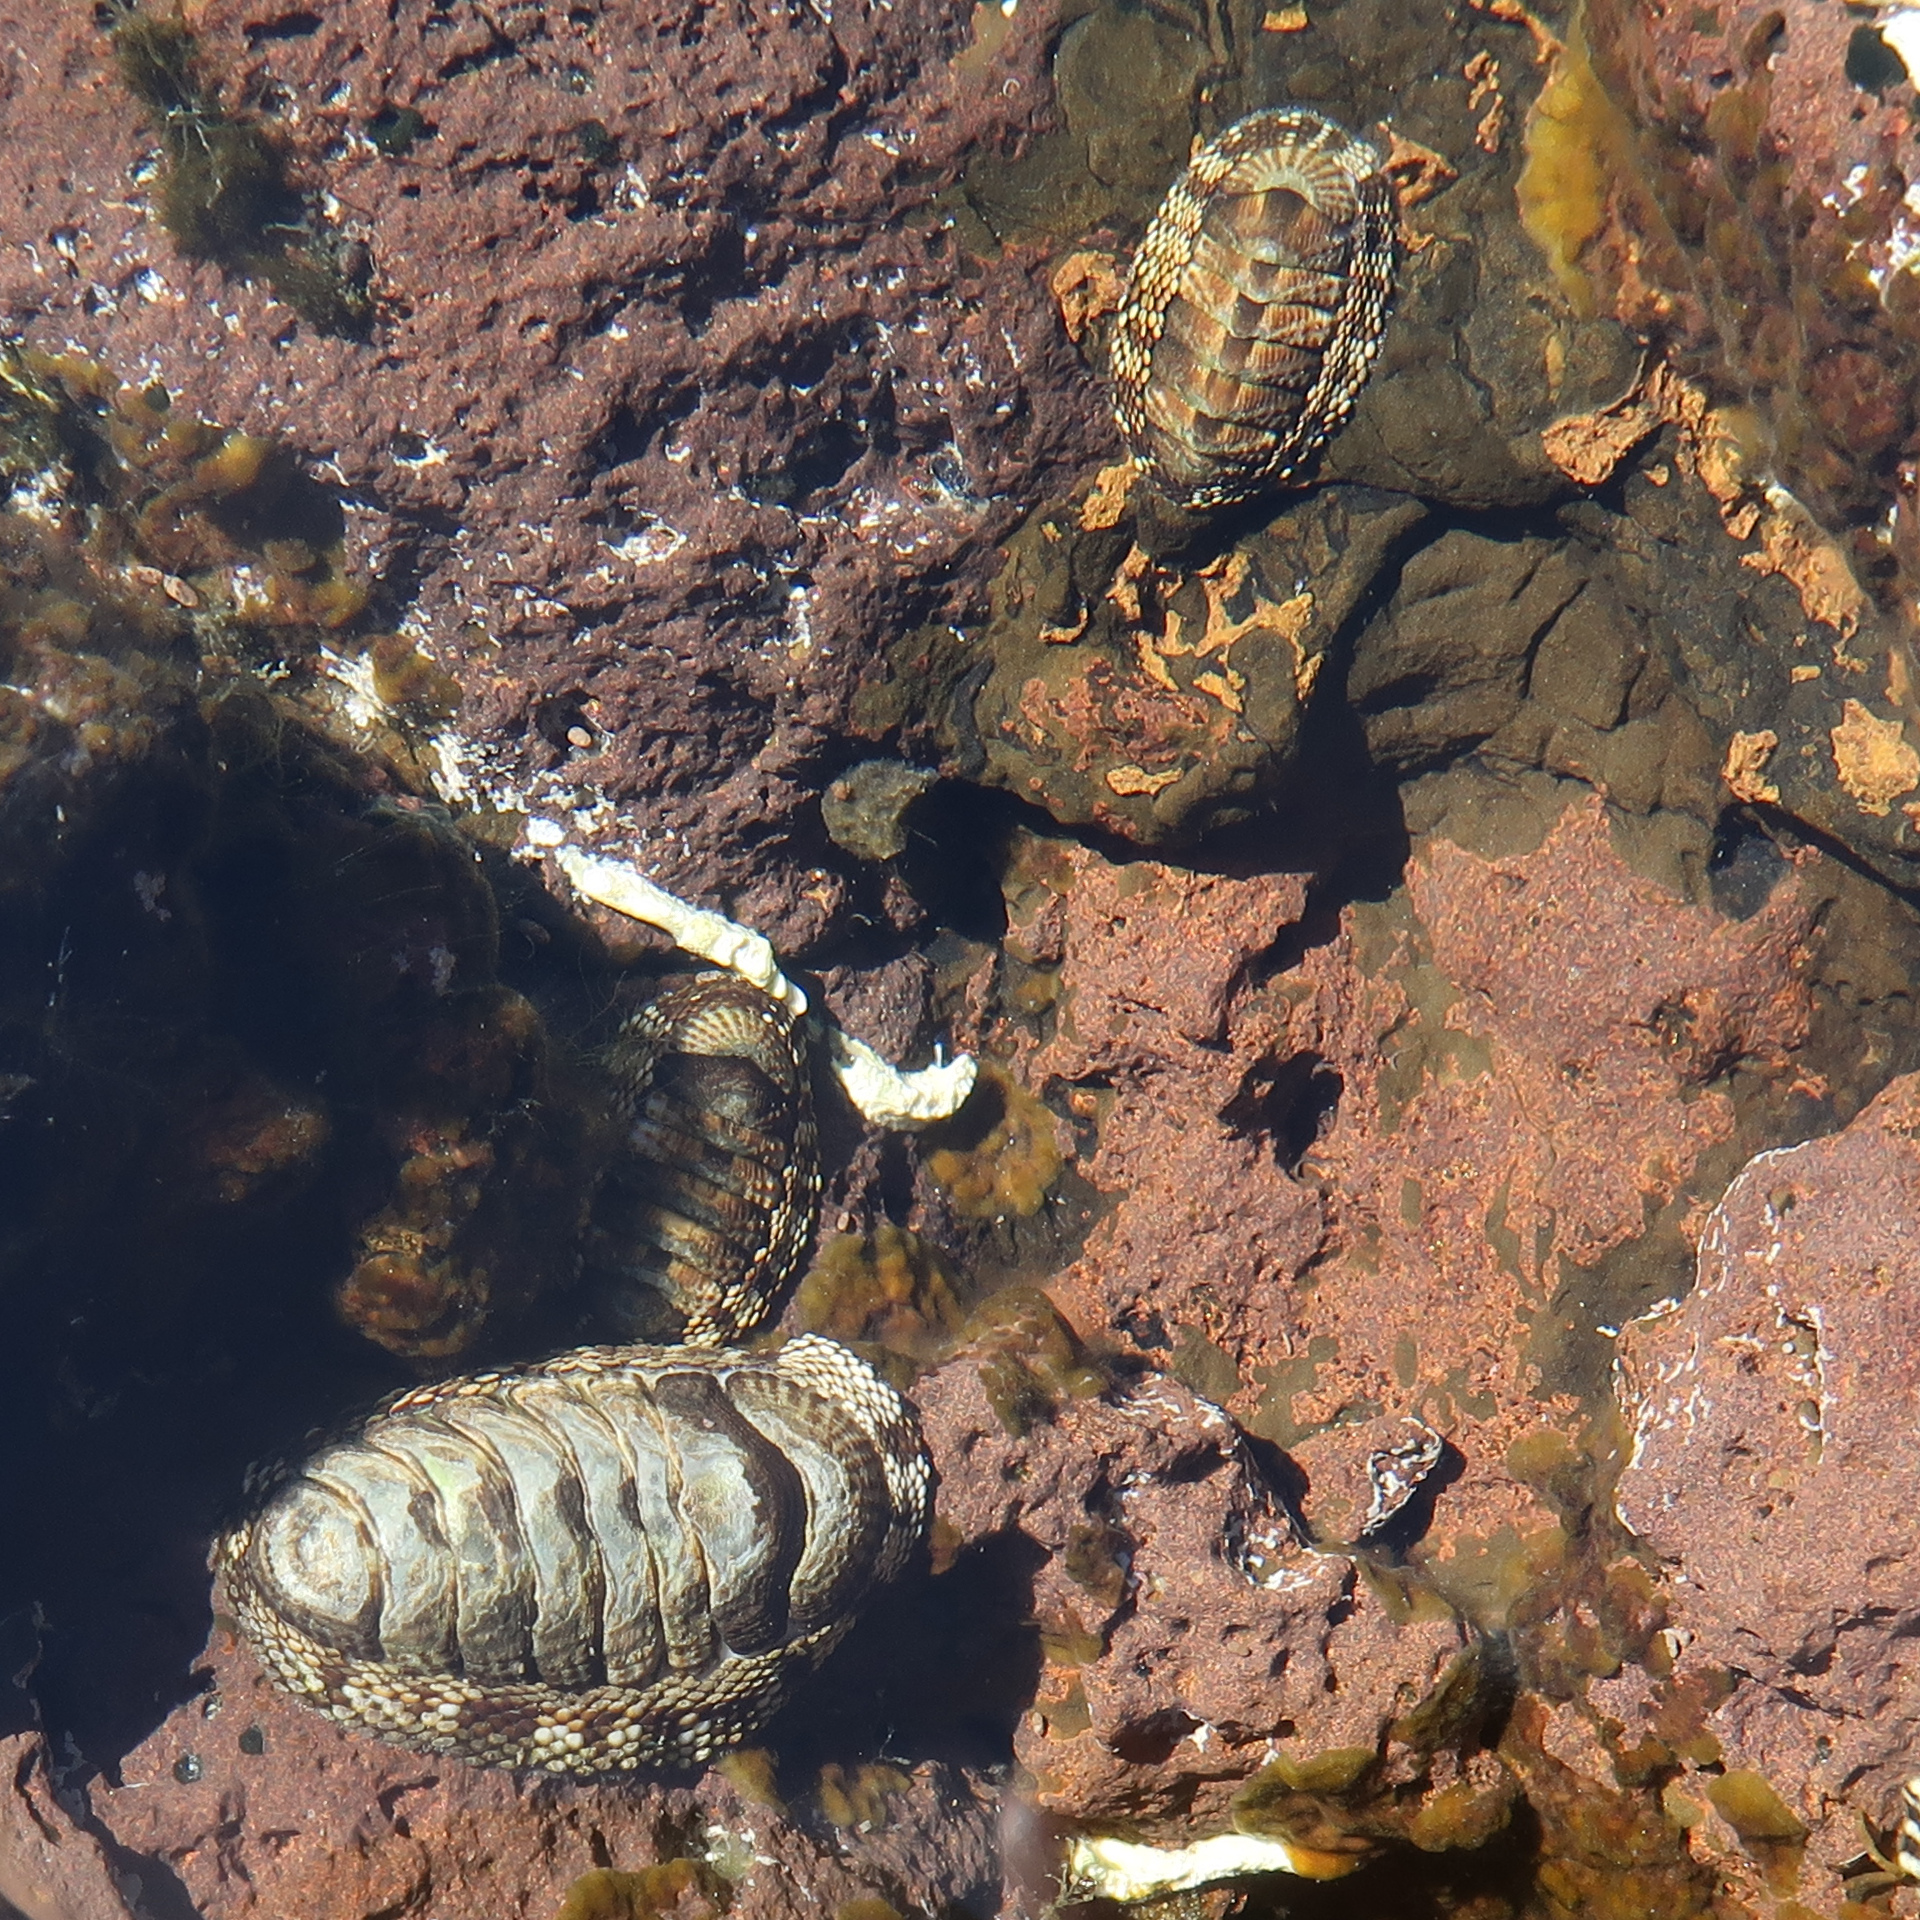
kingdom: Animalia
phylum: Mollusca
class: Polyplacophora
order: Chitonida
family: Chitonidae
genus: Sypharochiton
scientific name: Sypharochiton pelliserpentis
